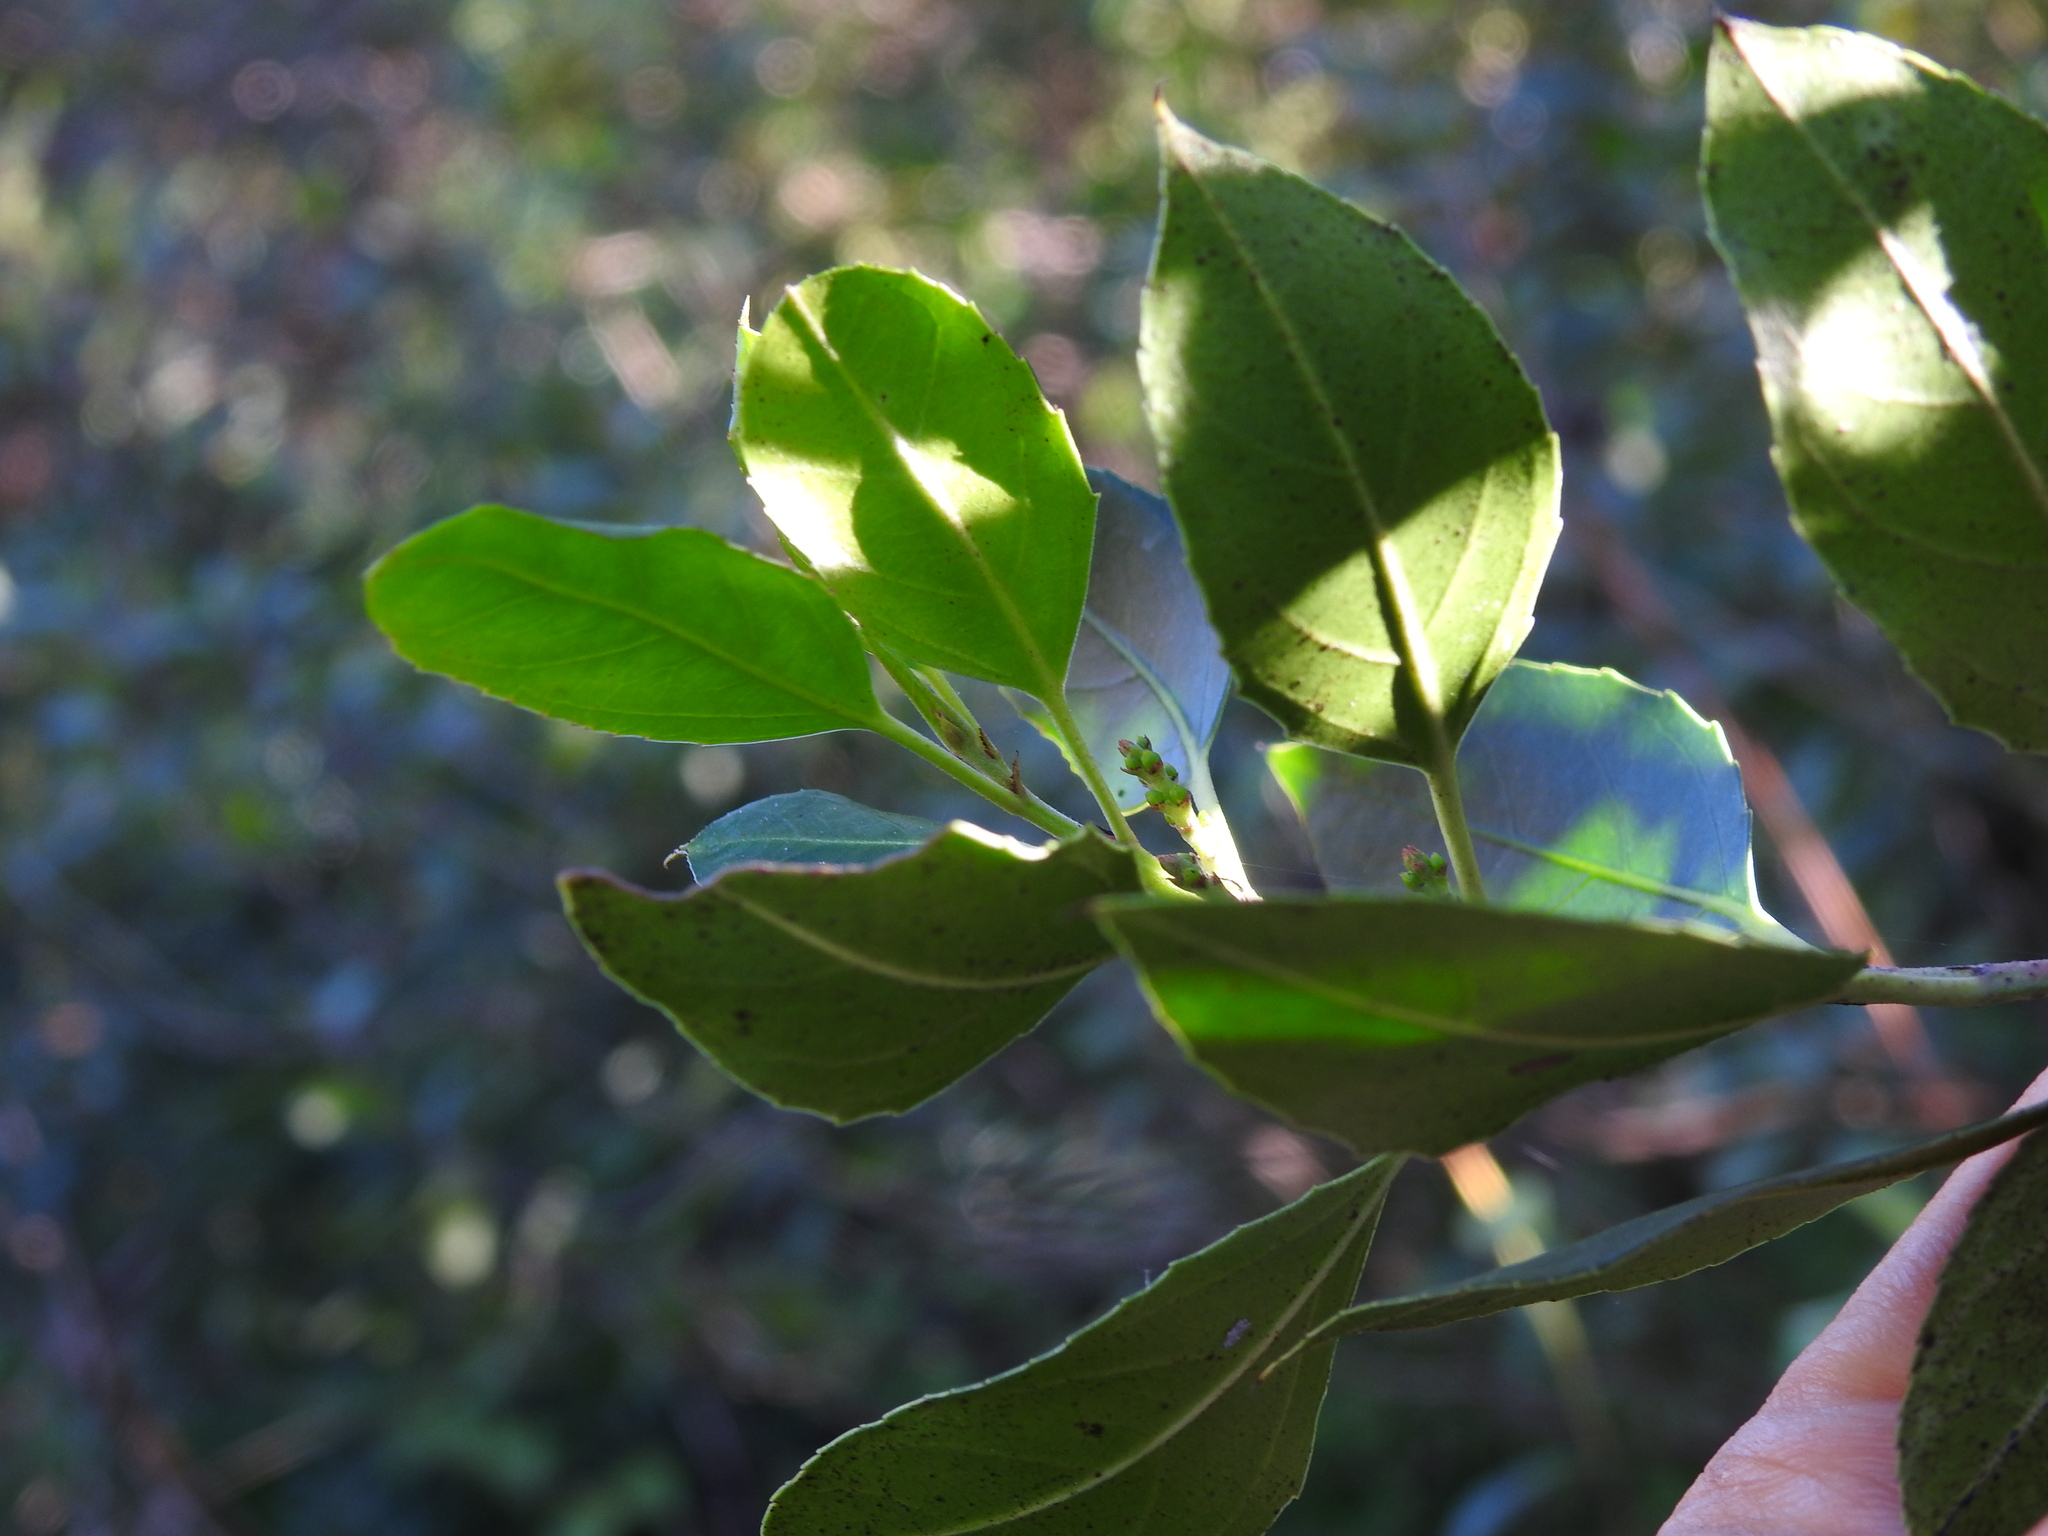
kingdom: Plantae
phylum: Tracheophyta
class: Magnoliopsida
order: Rosales
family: Rhamnaceae
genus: Rhamnus
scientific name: Rhamnus alaternus
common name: Mediterranean buckthorn
